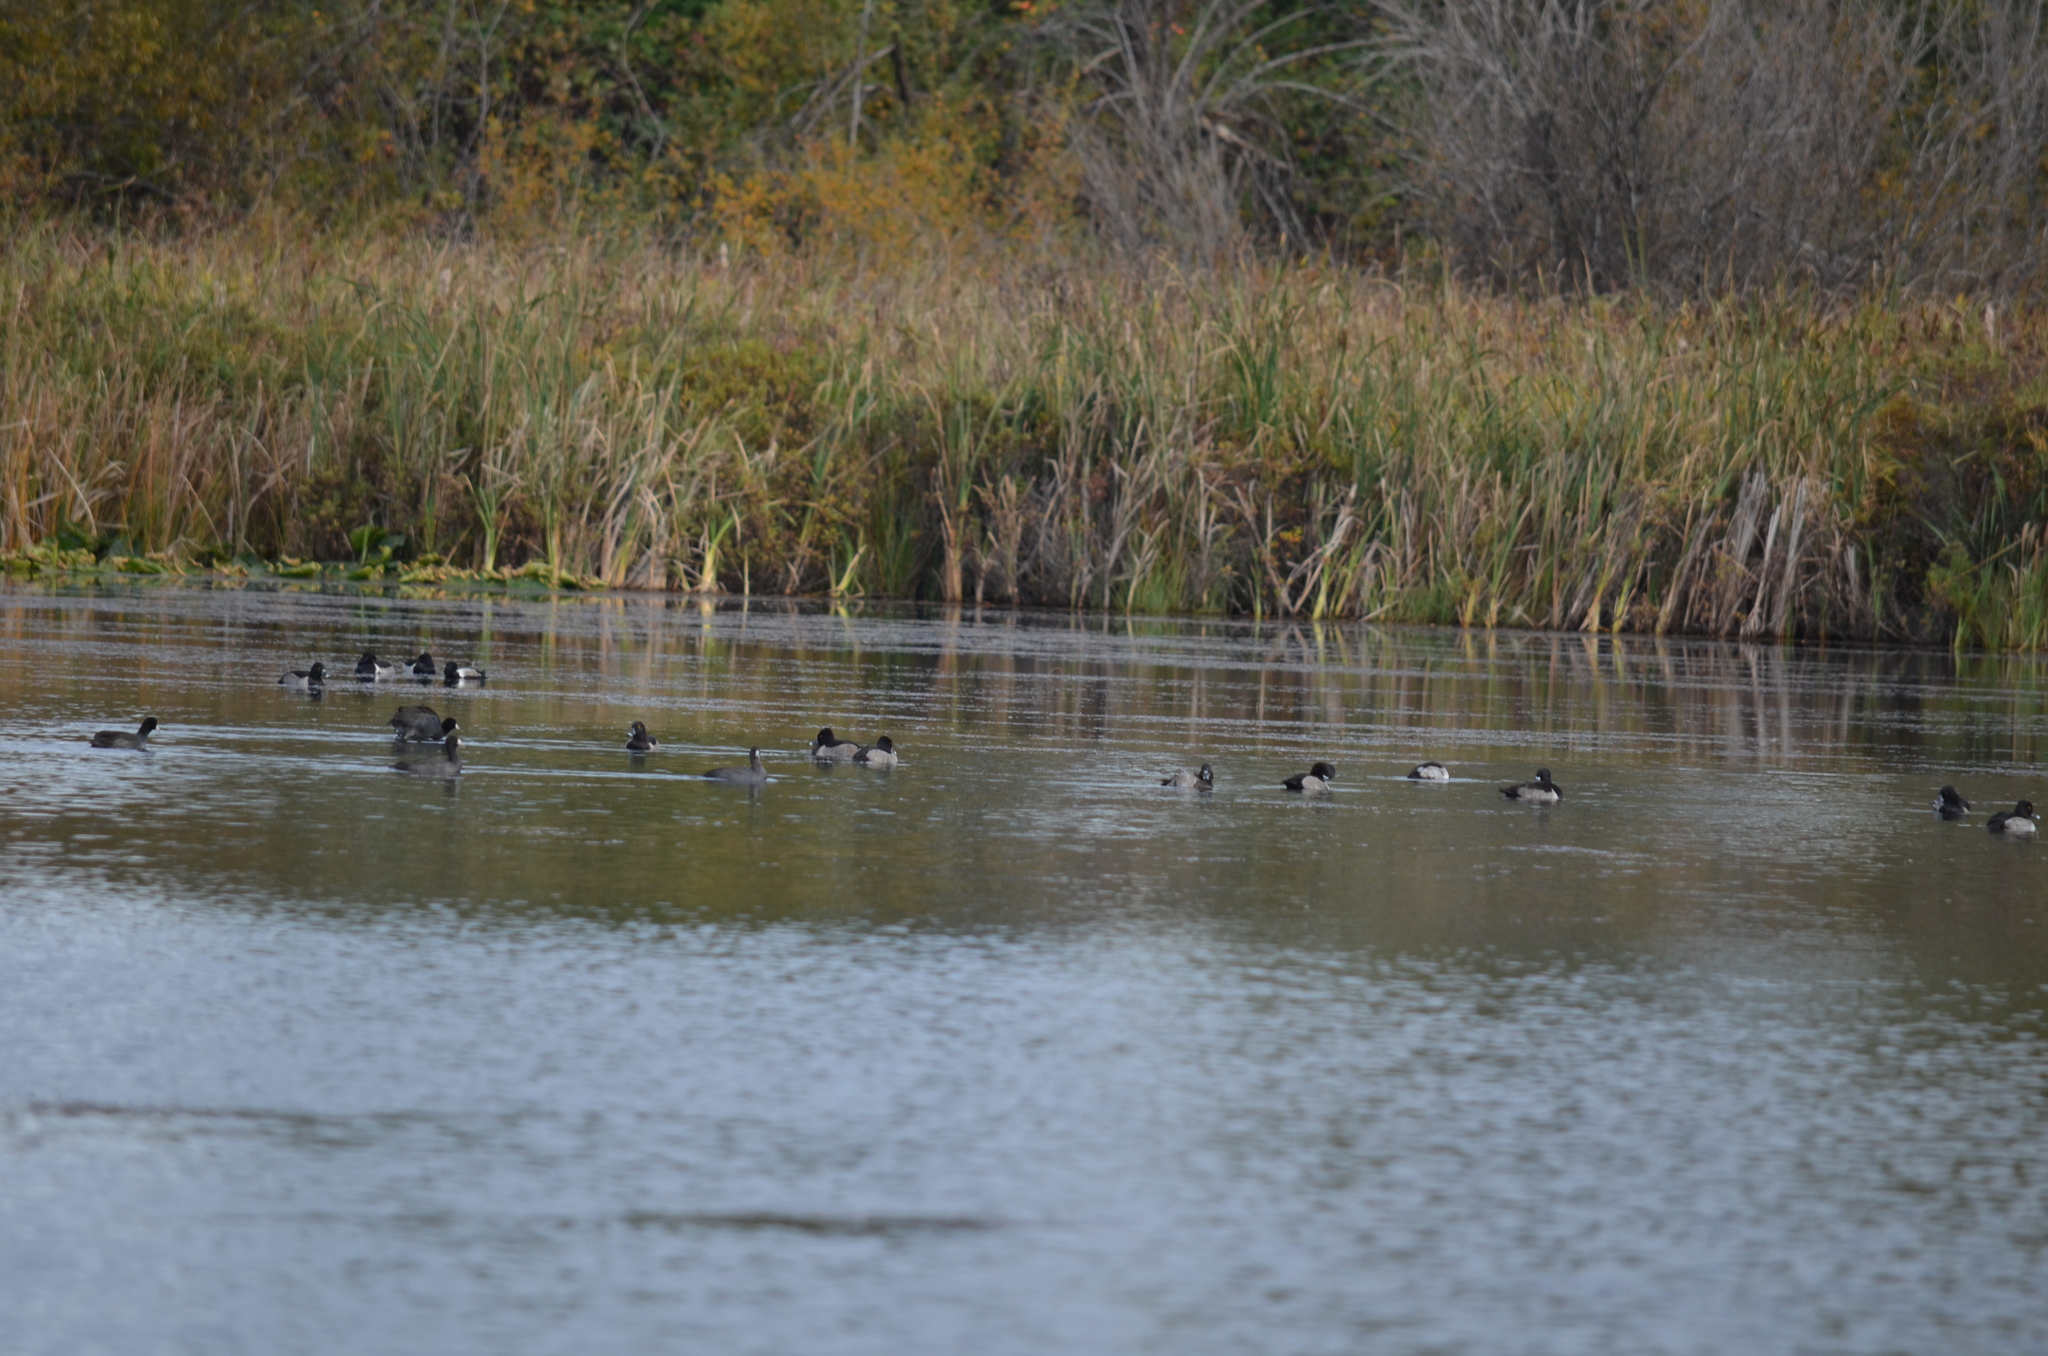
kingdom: Animalia
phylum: Chordata
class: Aves
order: Anseriformes
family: Anatidae
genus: Aythya
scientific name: Aythya collaris
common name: Ring-necked duck
